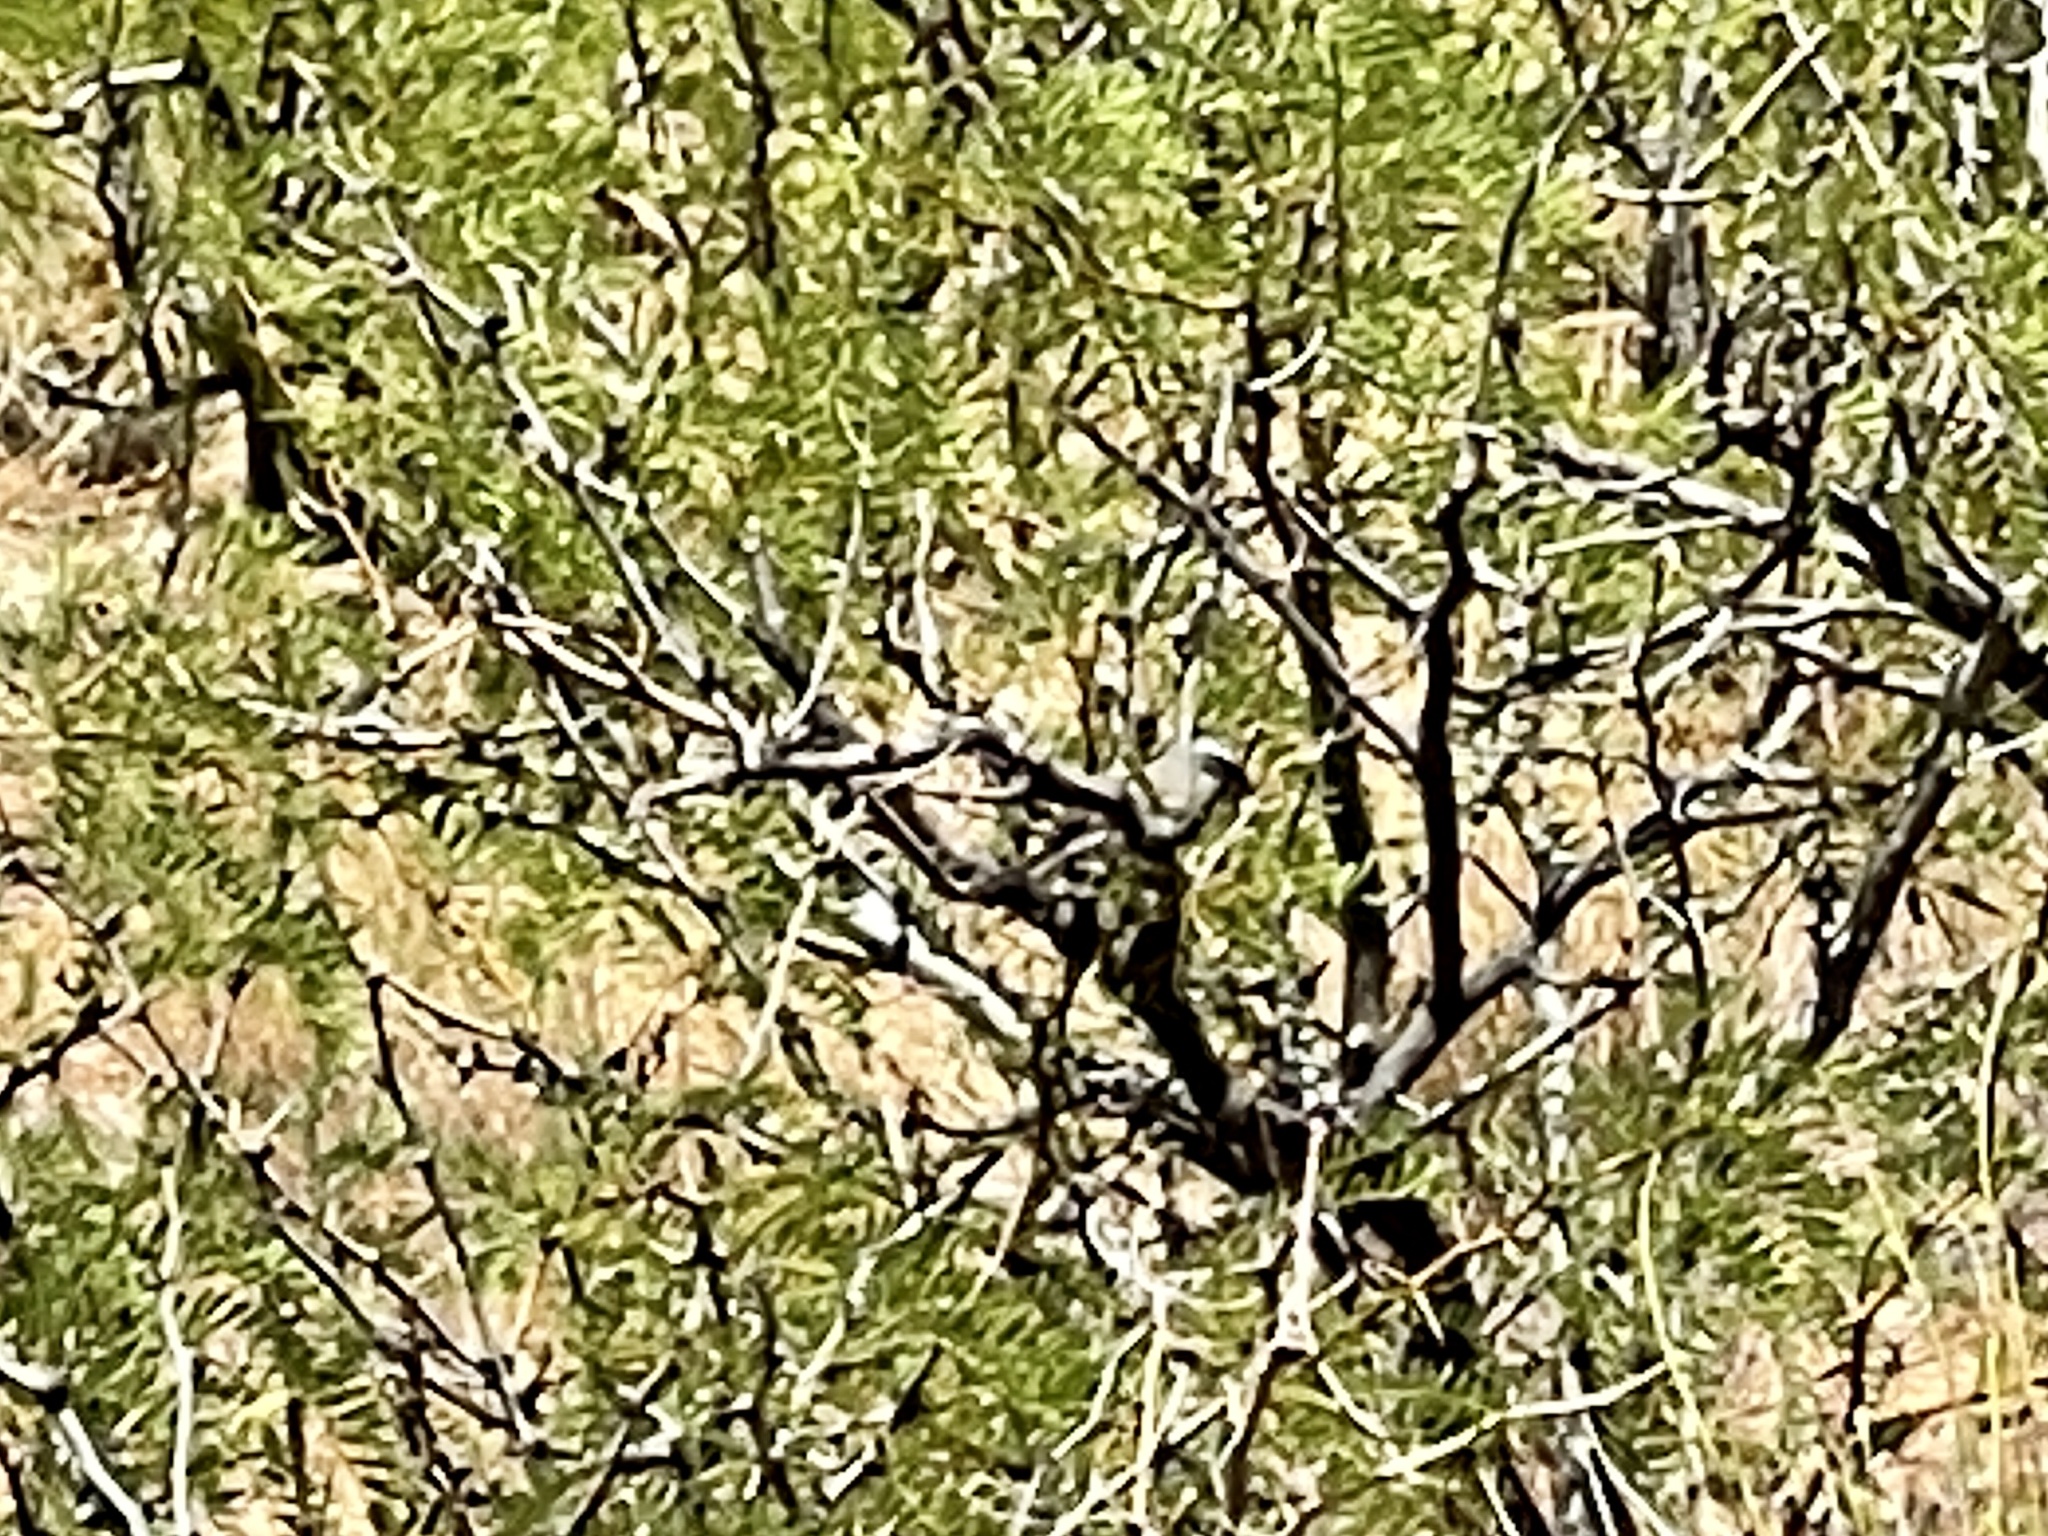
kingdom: Animalia
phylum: Chordata
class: Aves
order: Passeriformes
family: Passerellidae
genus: Amphispiza
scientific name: Amphispiza bilineata
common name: Black-throated sparrow
